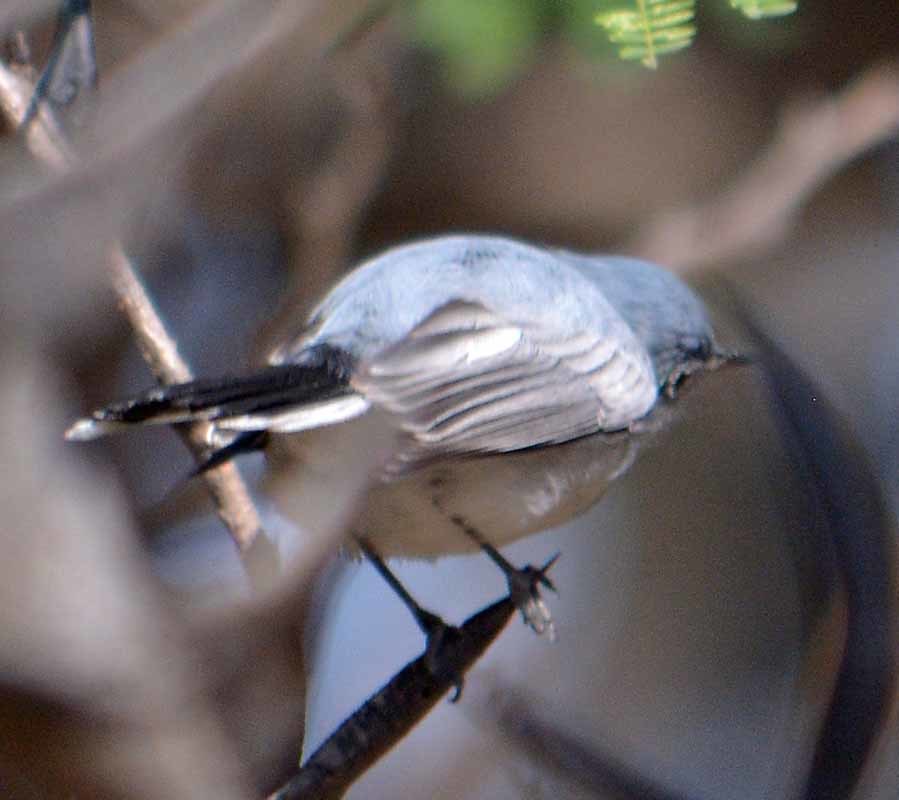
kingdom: Animalia
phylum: Chordata
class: Aves
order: Passeriformes
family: Polioptilidae
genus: Polioptila
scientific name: Polioptila caerulea
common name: Blue-gray gnatcatcher
